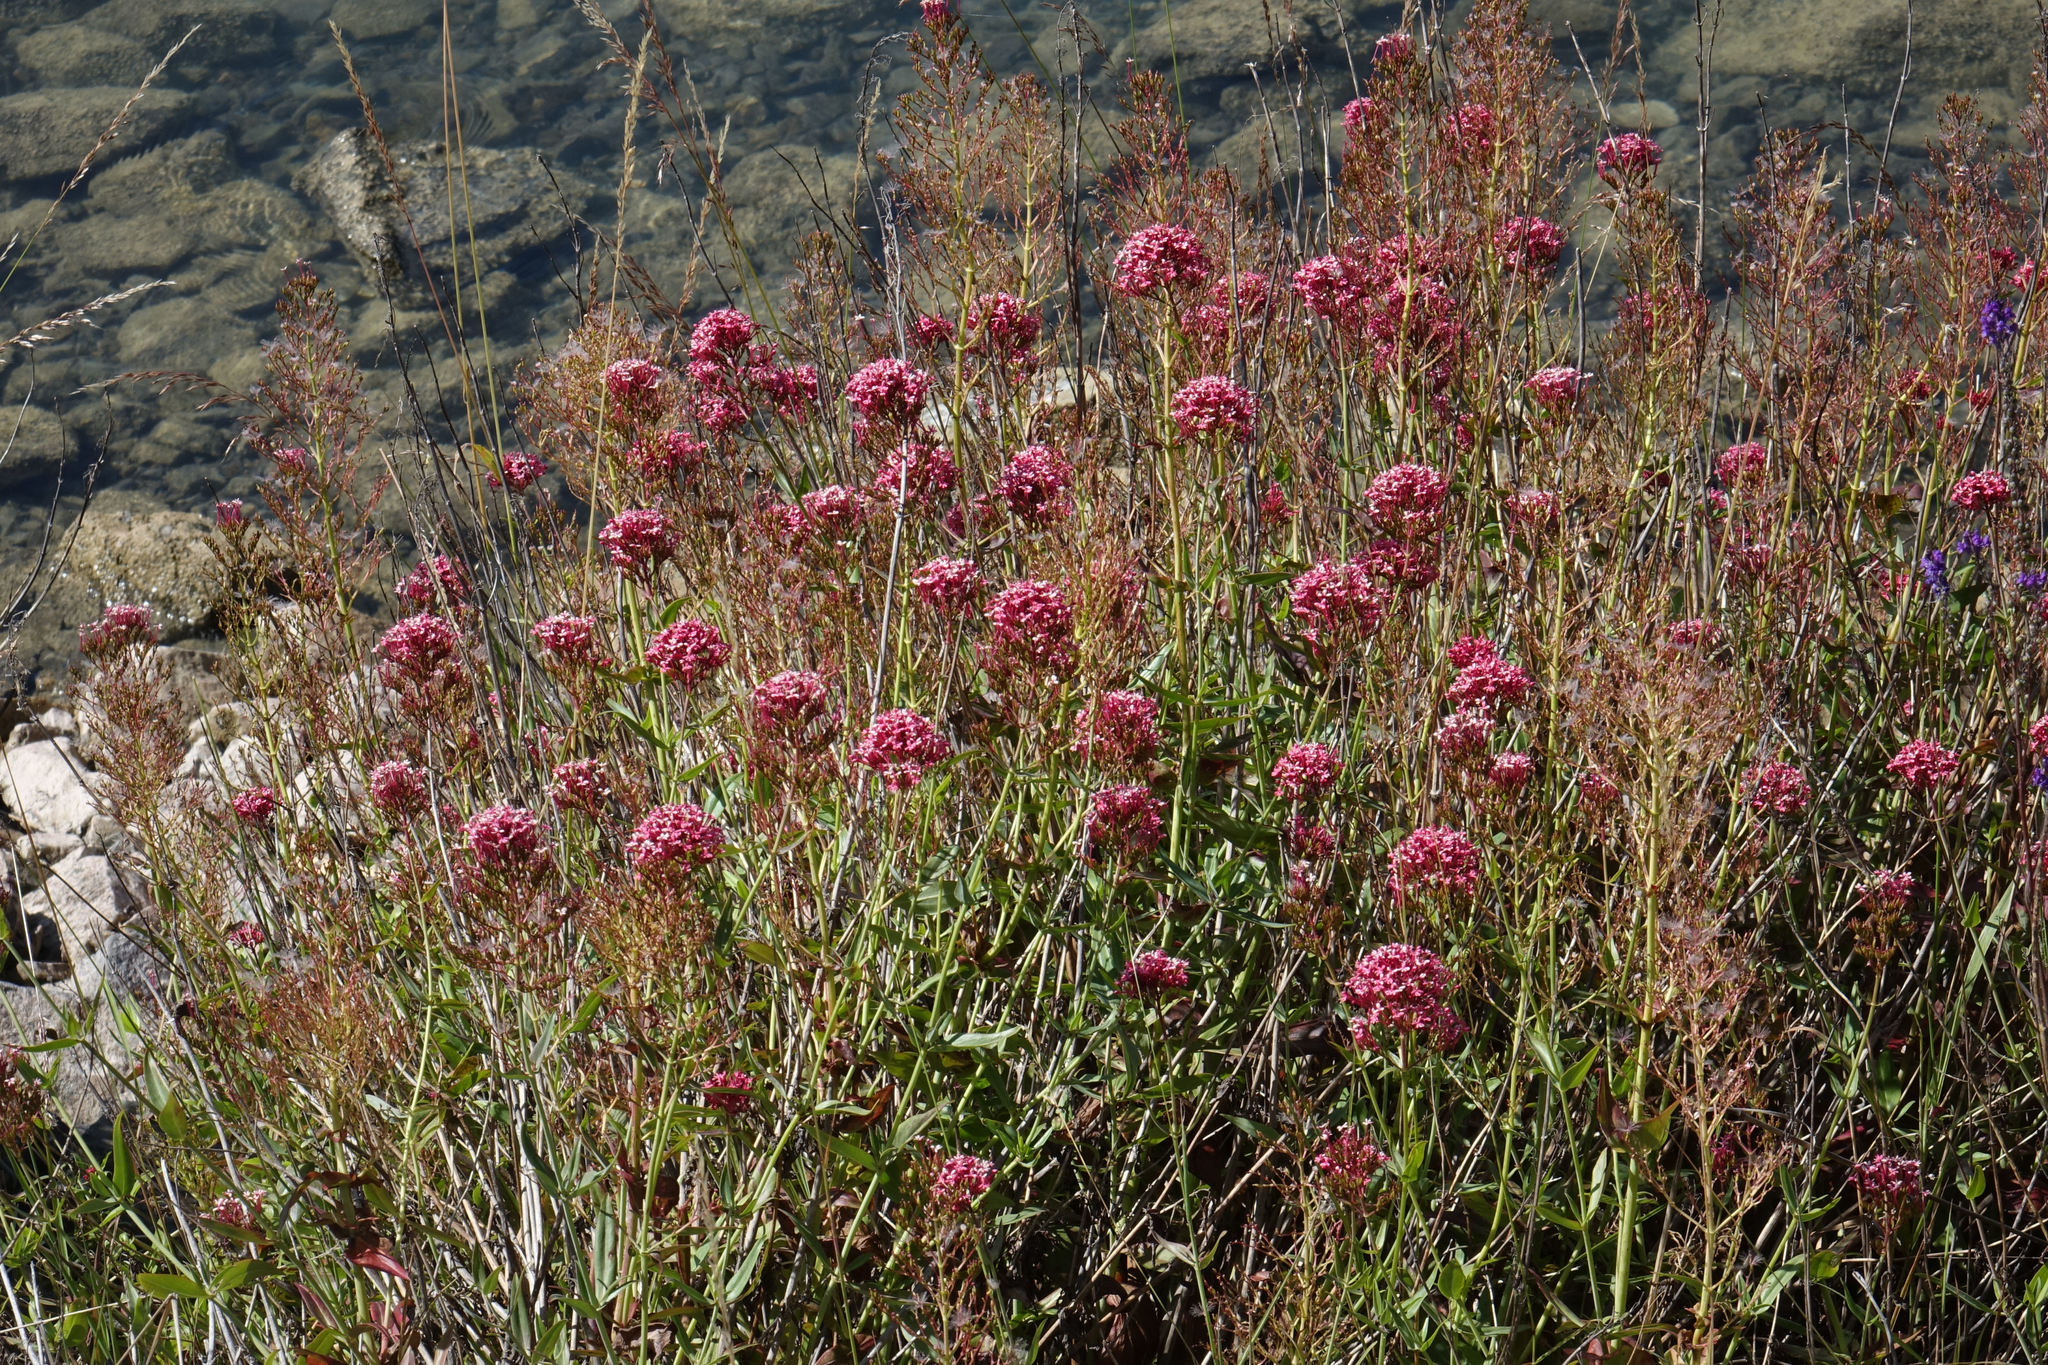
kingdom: Plantae
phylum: Tracheophyta
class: Magnoliopsida
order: Dipsacales
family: Caprifoliaceae
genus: Centranthus
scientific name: Centranthus ruber
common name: Red valerian
